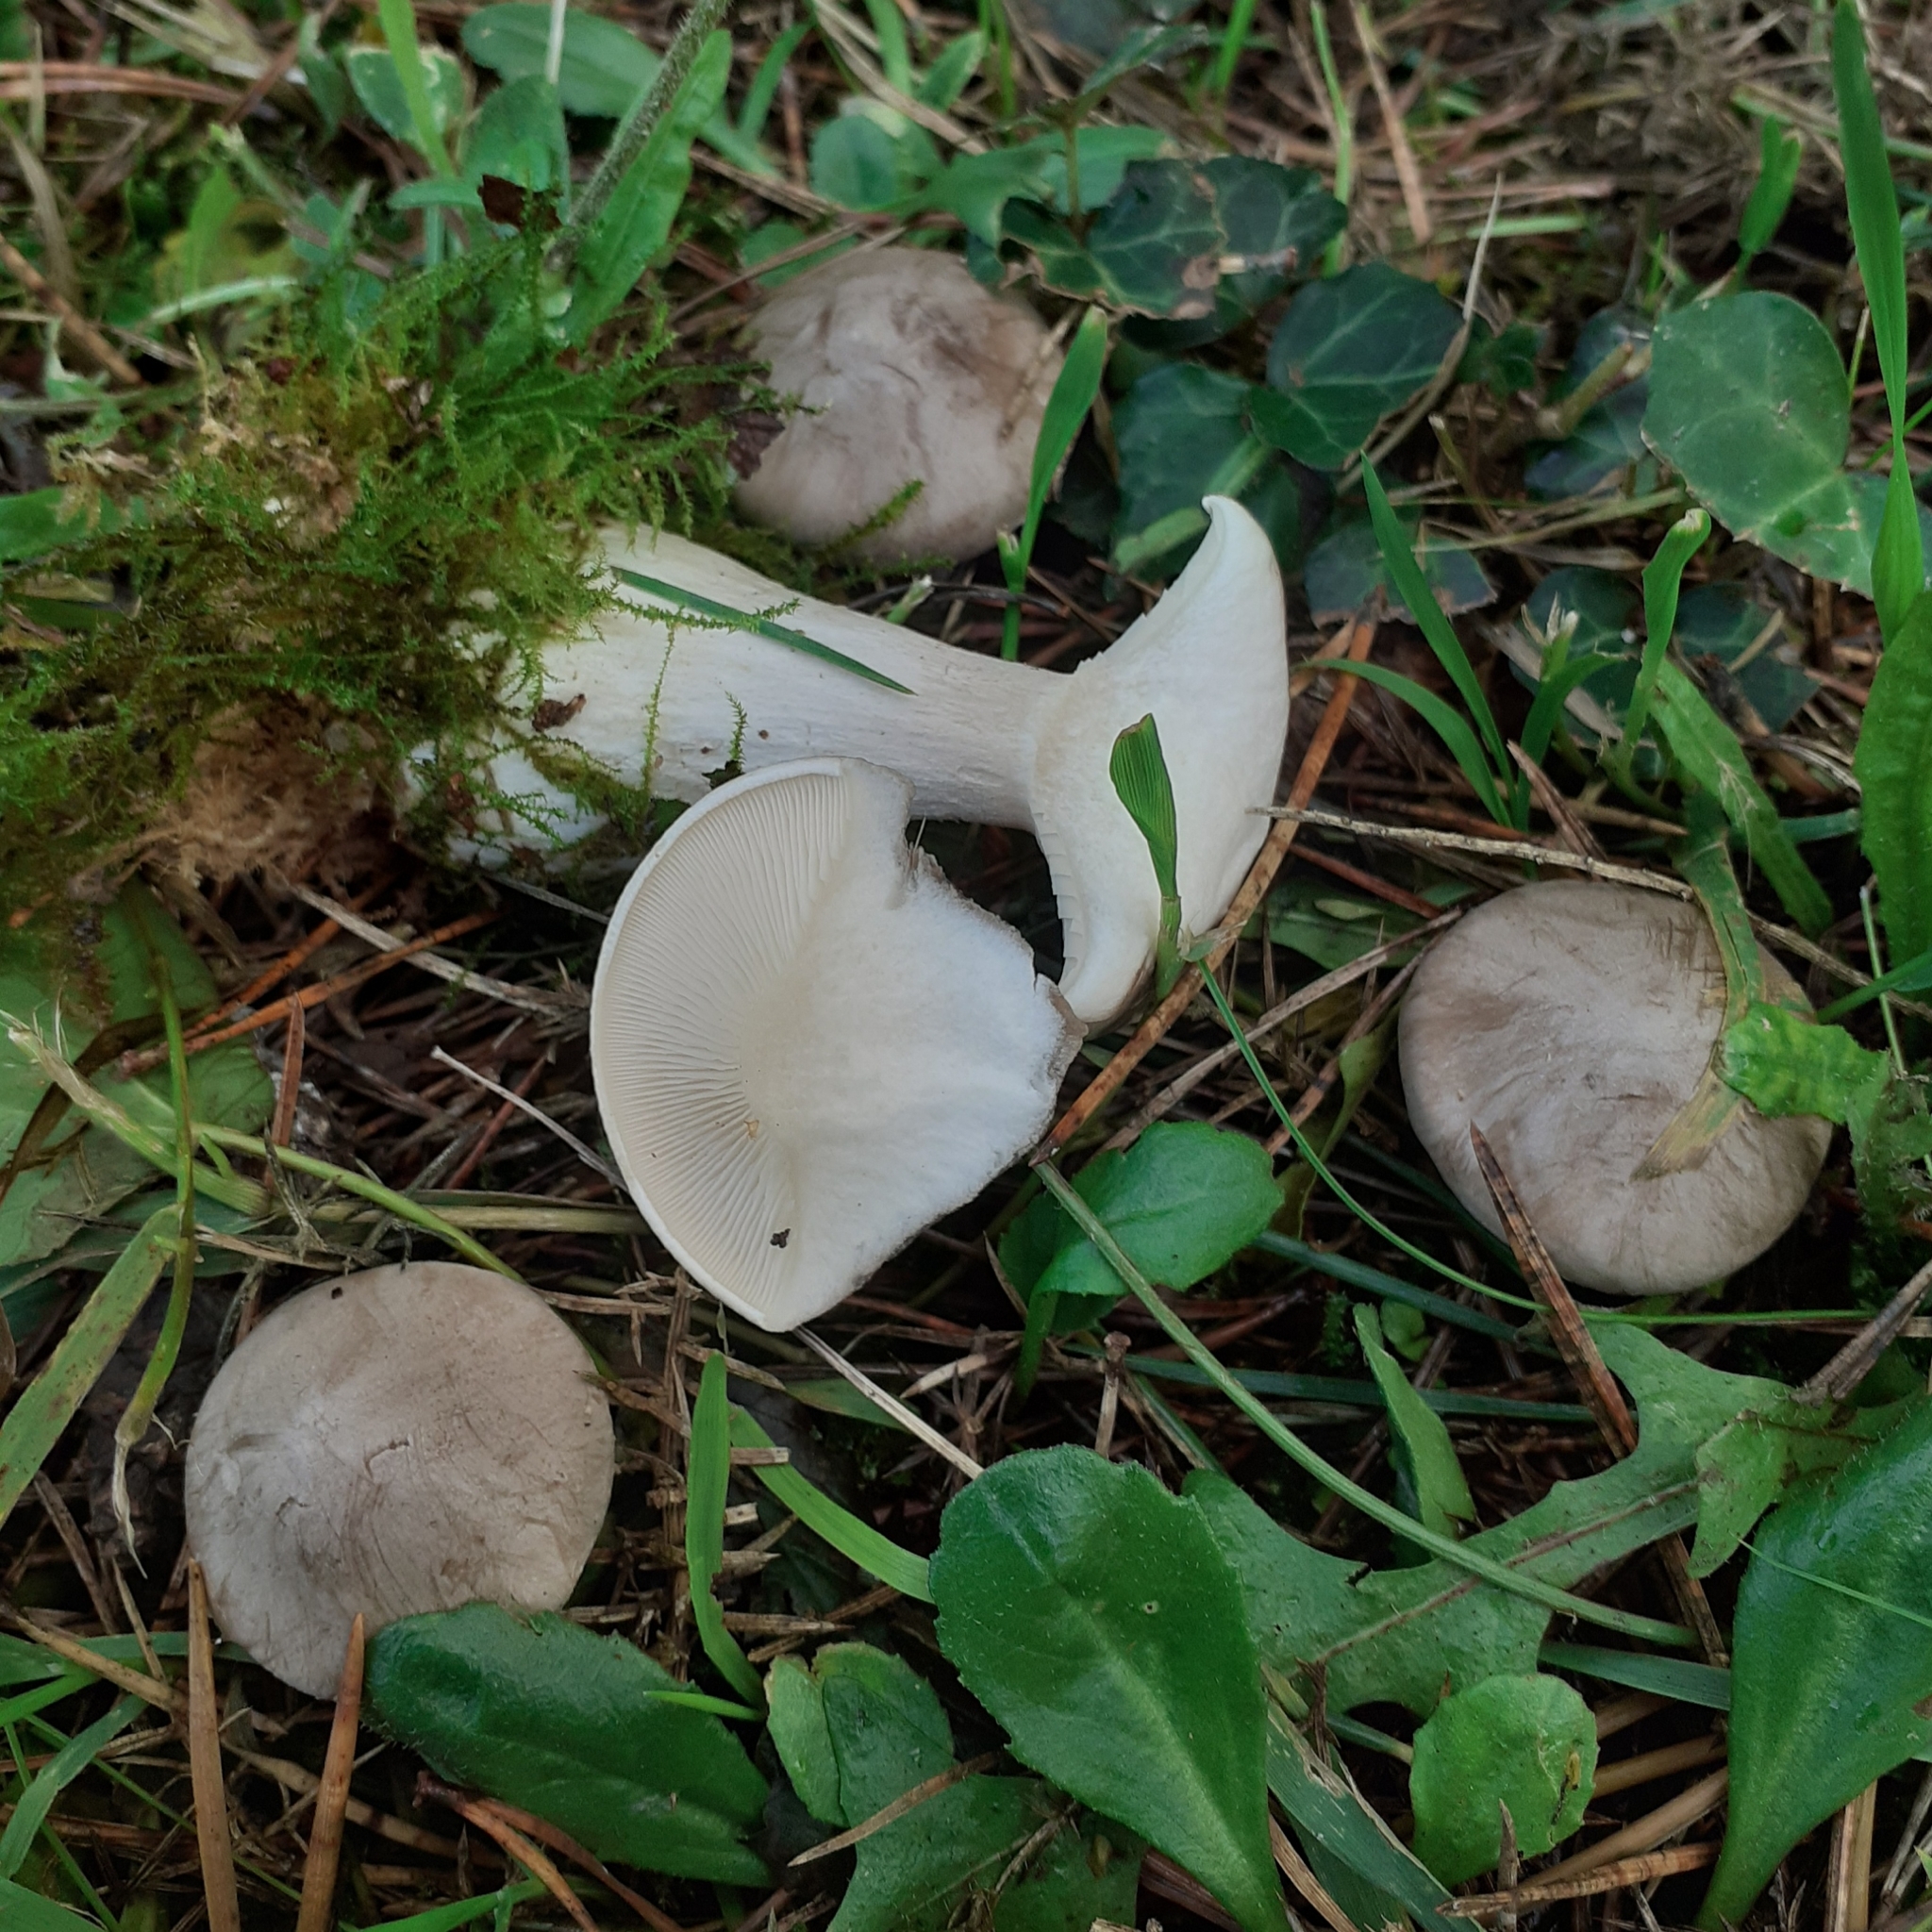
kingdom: Fungi
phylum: Basidiomycota
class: Agaricomycetes
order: Agaricales
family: Tricholomataceae
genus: Clitocybe
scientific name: Clitocybe nebularis
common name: Clouded agaric
